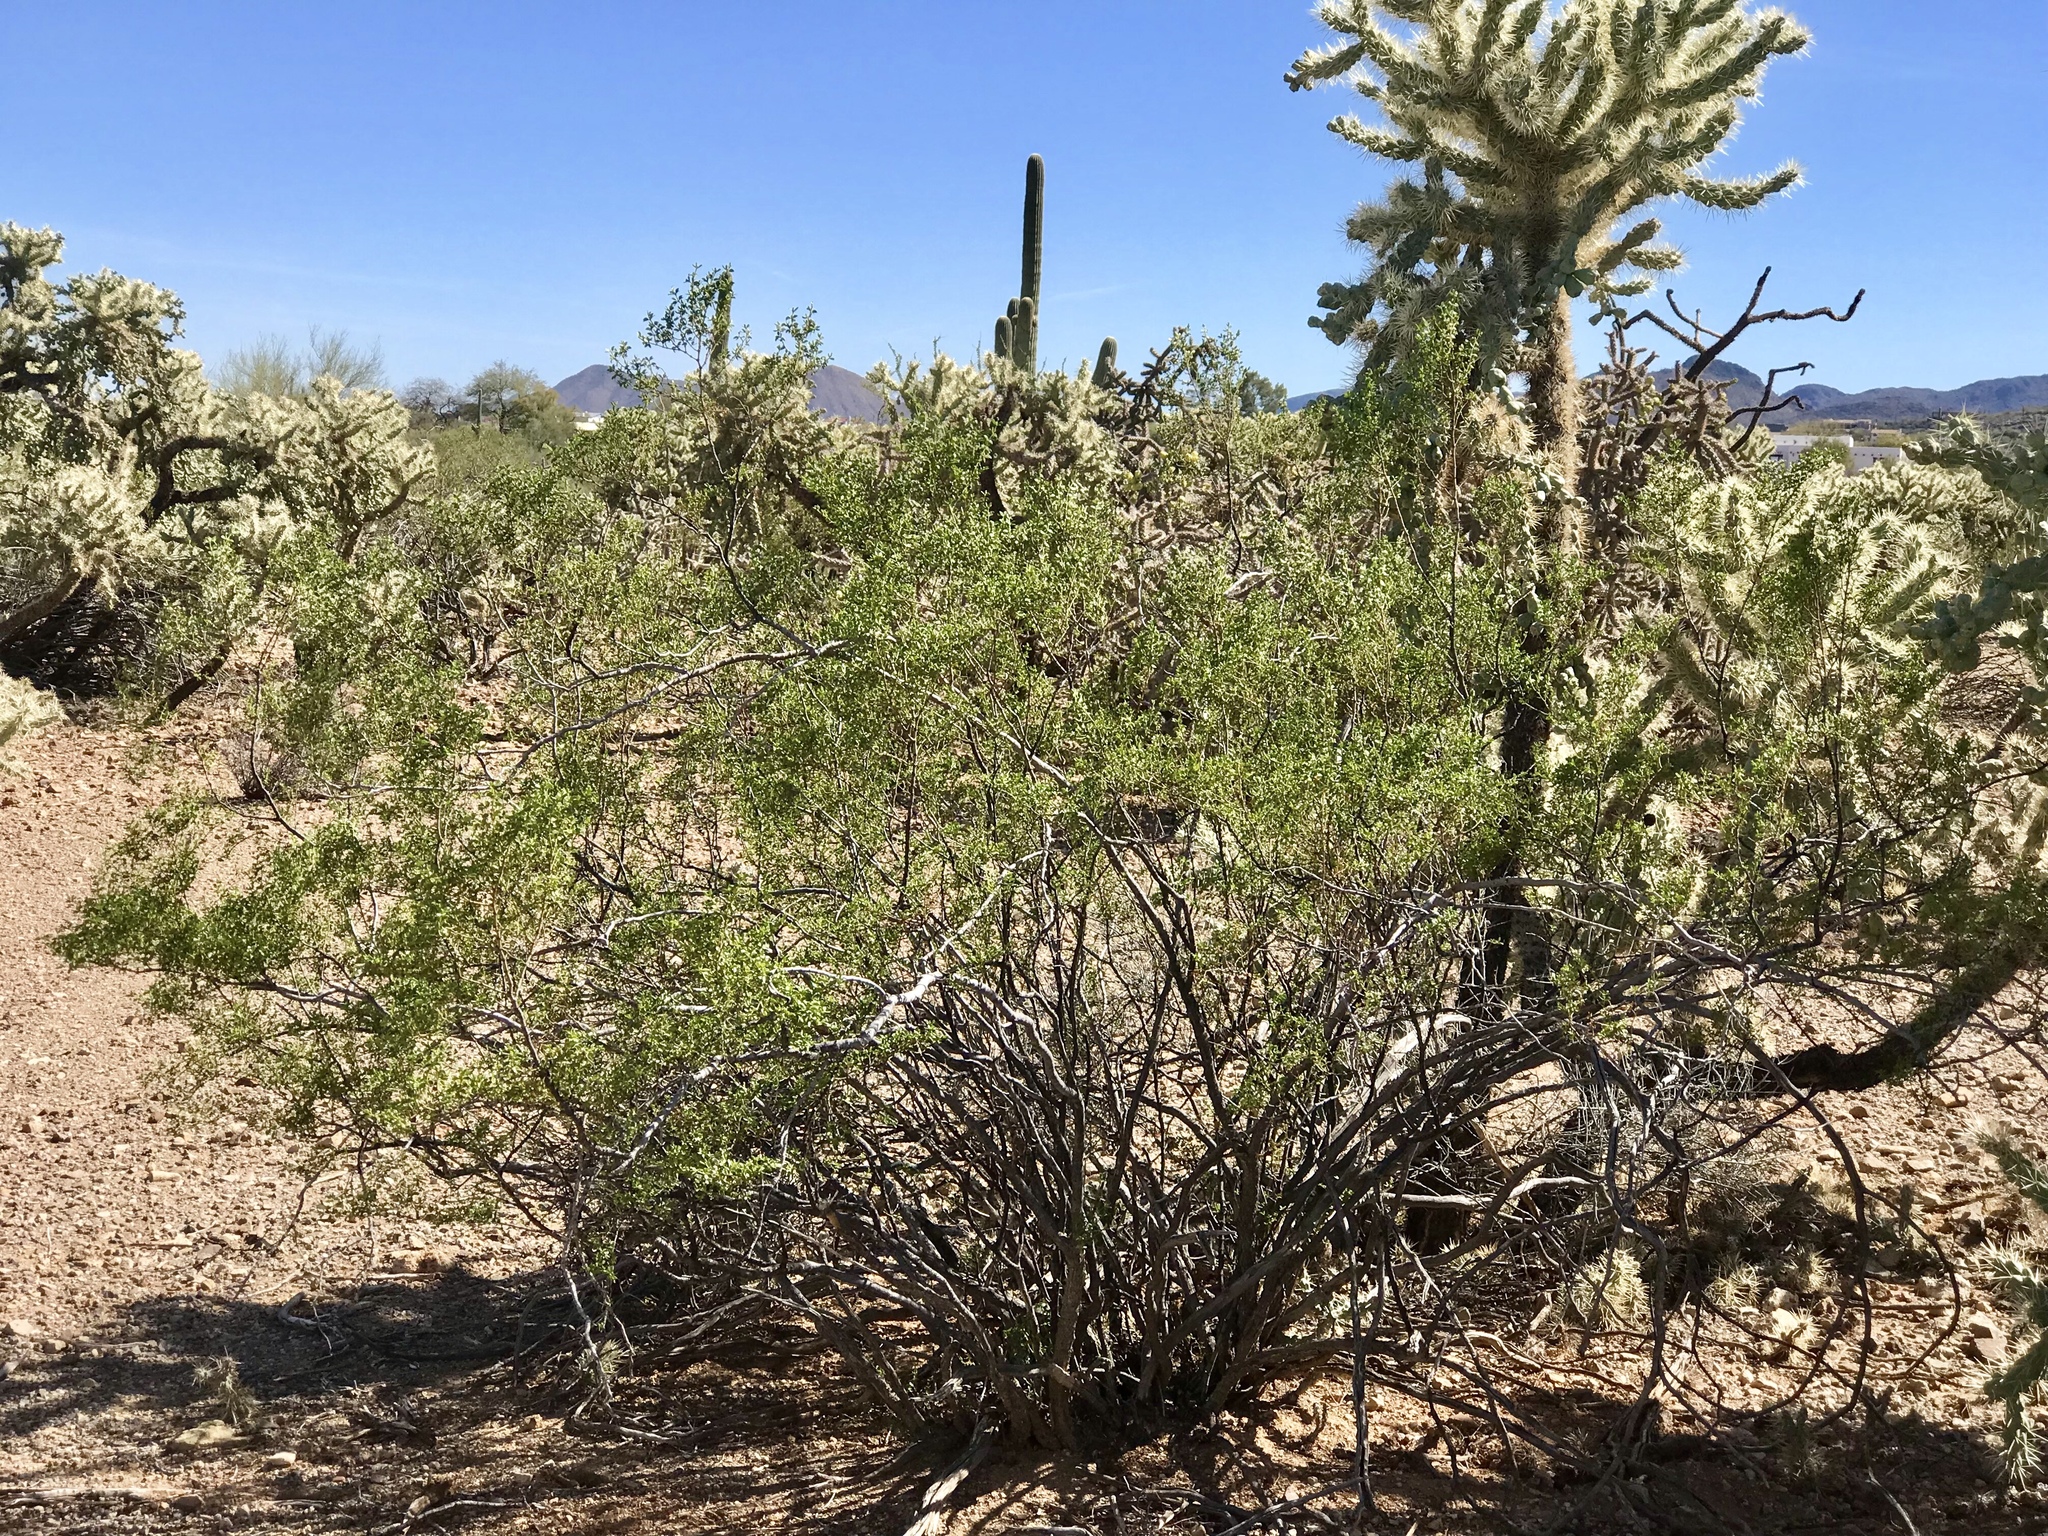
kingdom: Plantae
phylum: Tracheophyta
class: Magnoliopsida
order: Zygophyllales
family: Zygophyllaceae
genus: Larrea
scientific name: Larrea tridentata
